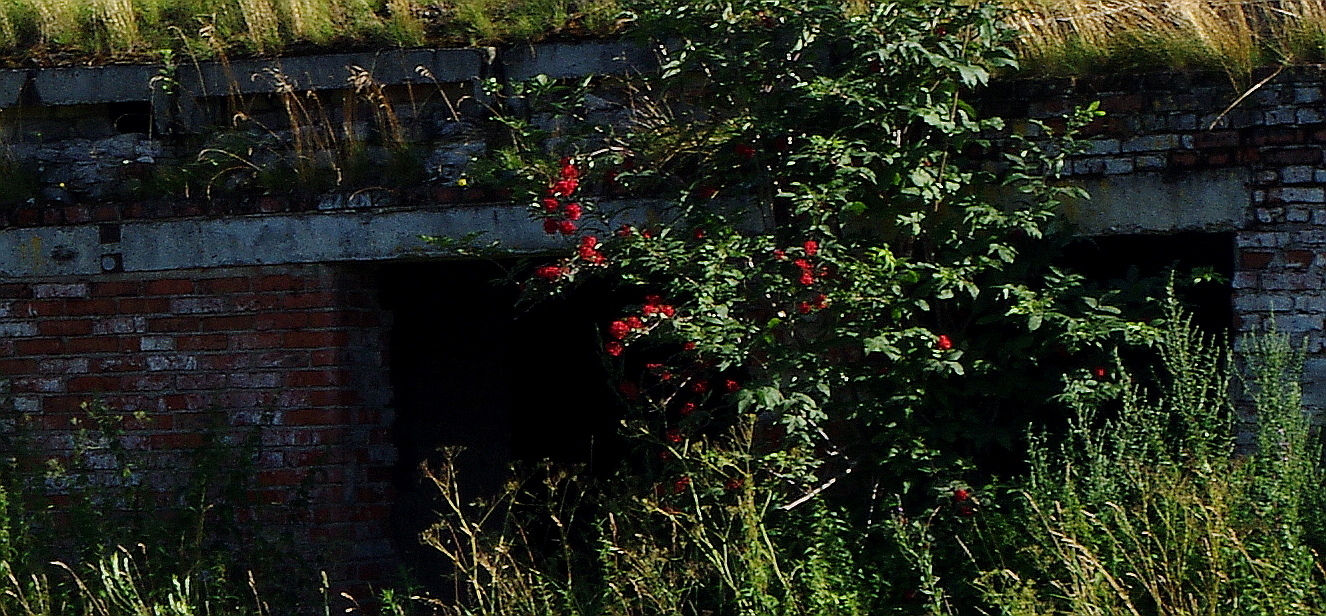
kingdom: Plantae
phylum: Tracheophyta
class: Magnoliopsida
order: Dipsacales
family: Viburnaceae
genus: Sambucus
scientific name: Sambucus racemosa
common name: Red-berried elder
